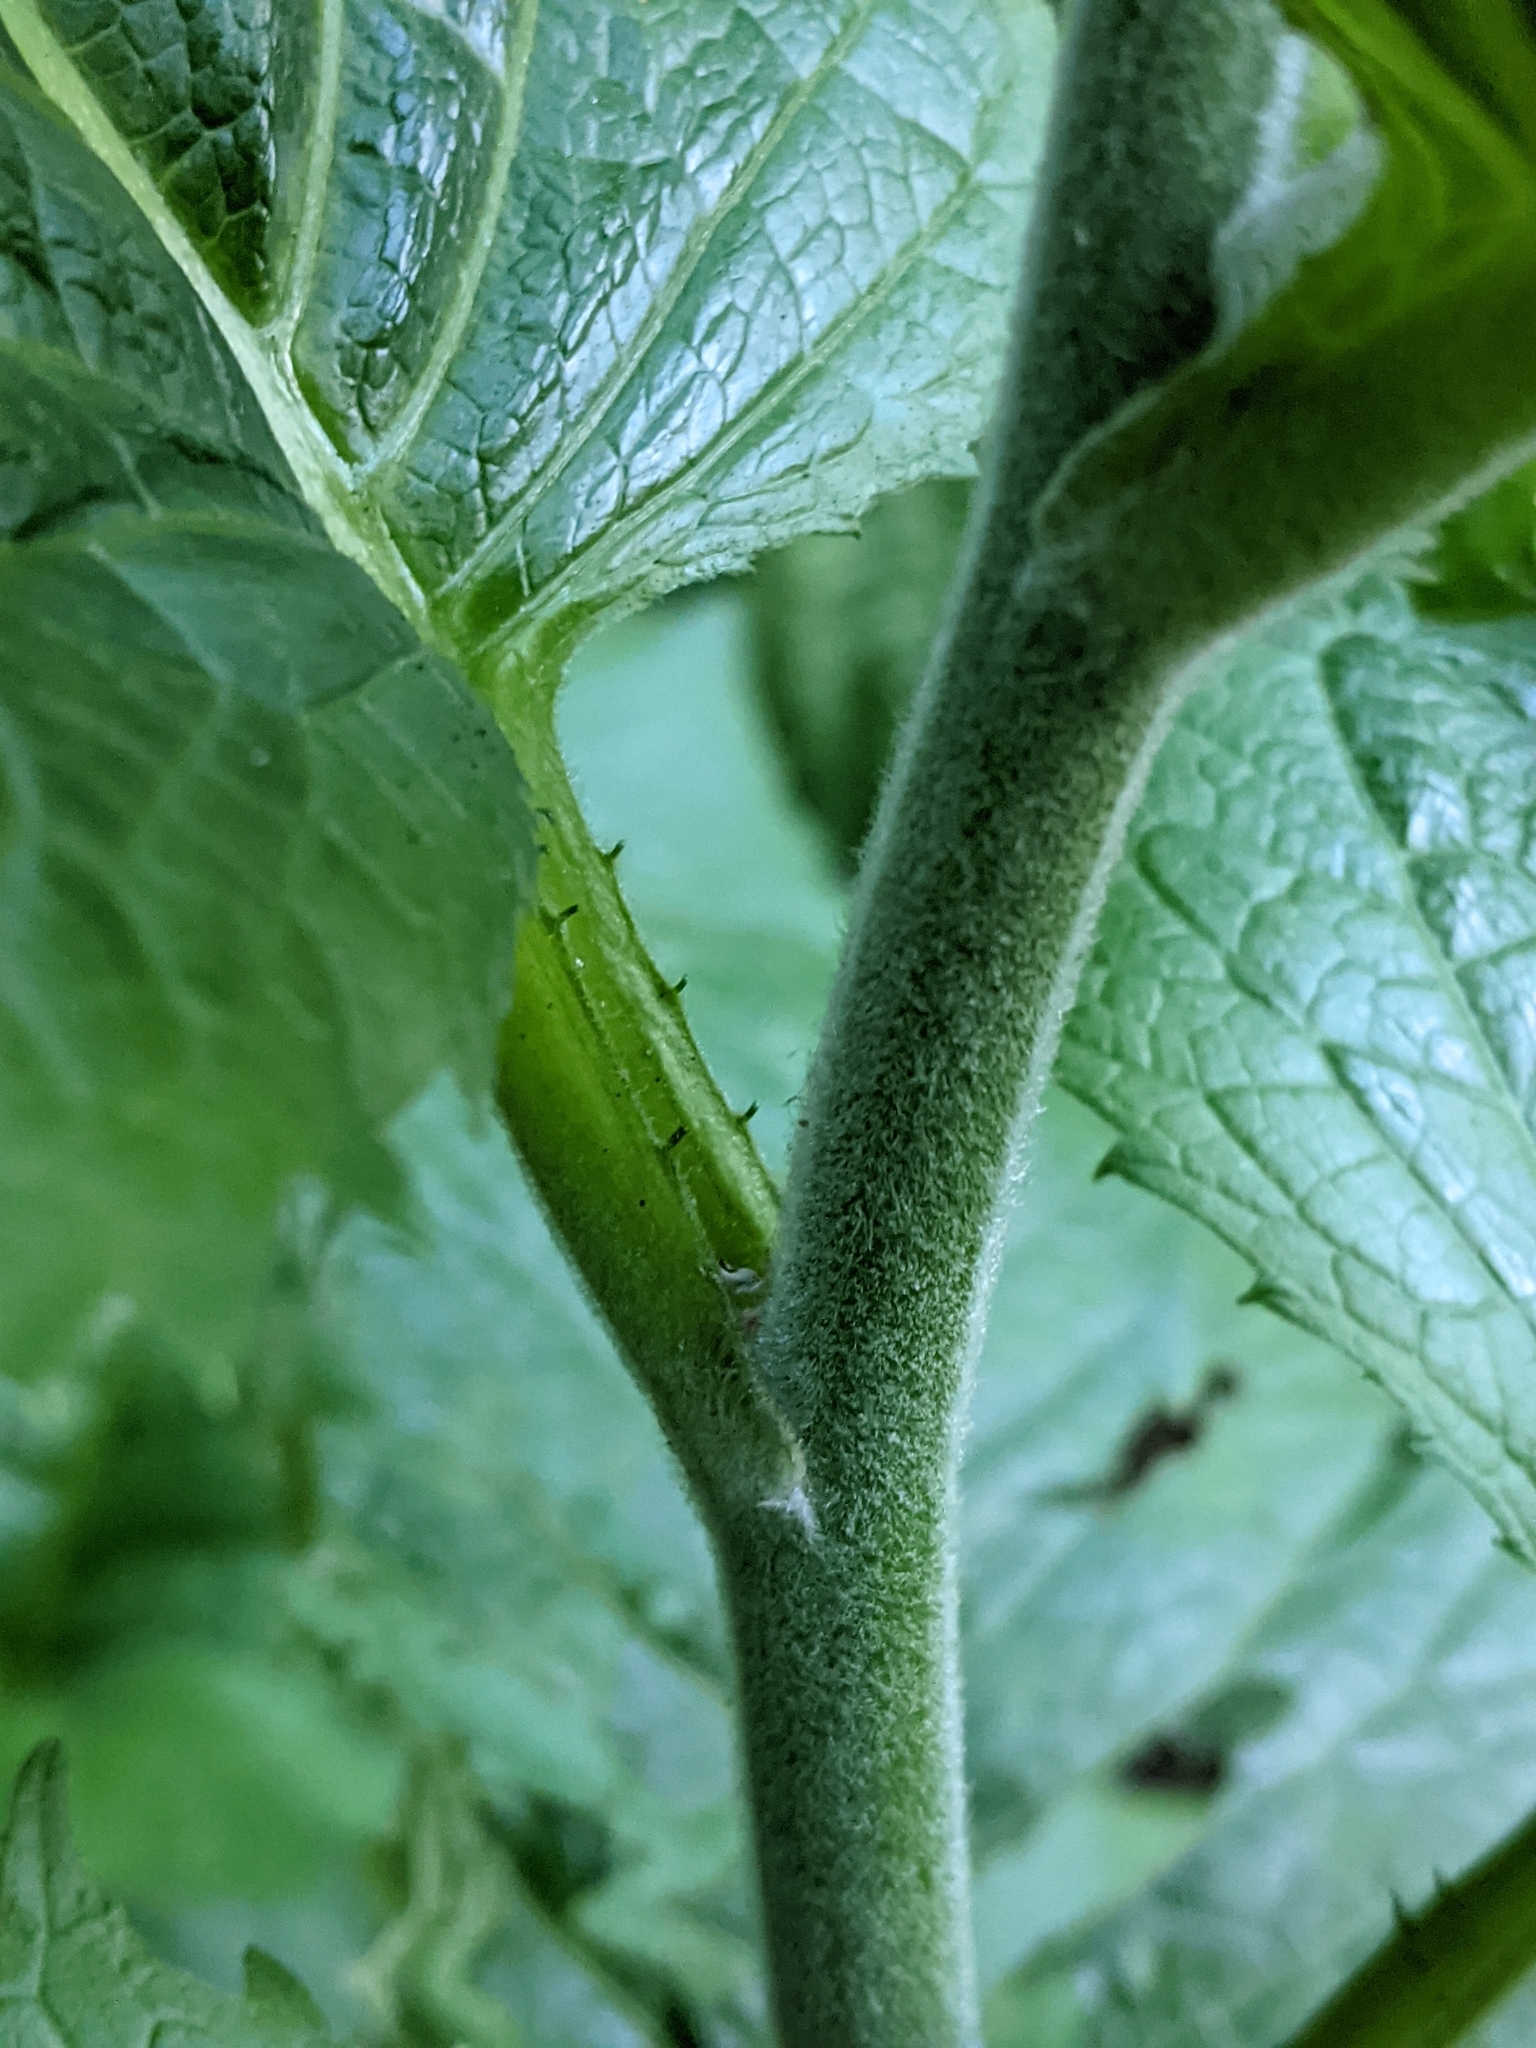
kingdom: Plantae
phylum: Tracheophyta
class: Magnoliopsida
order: Asterales
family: Asteraceae
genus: Telekia
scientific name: Telekia speciosa
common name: Yellow oxeye
